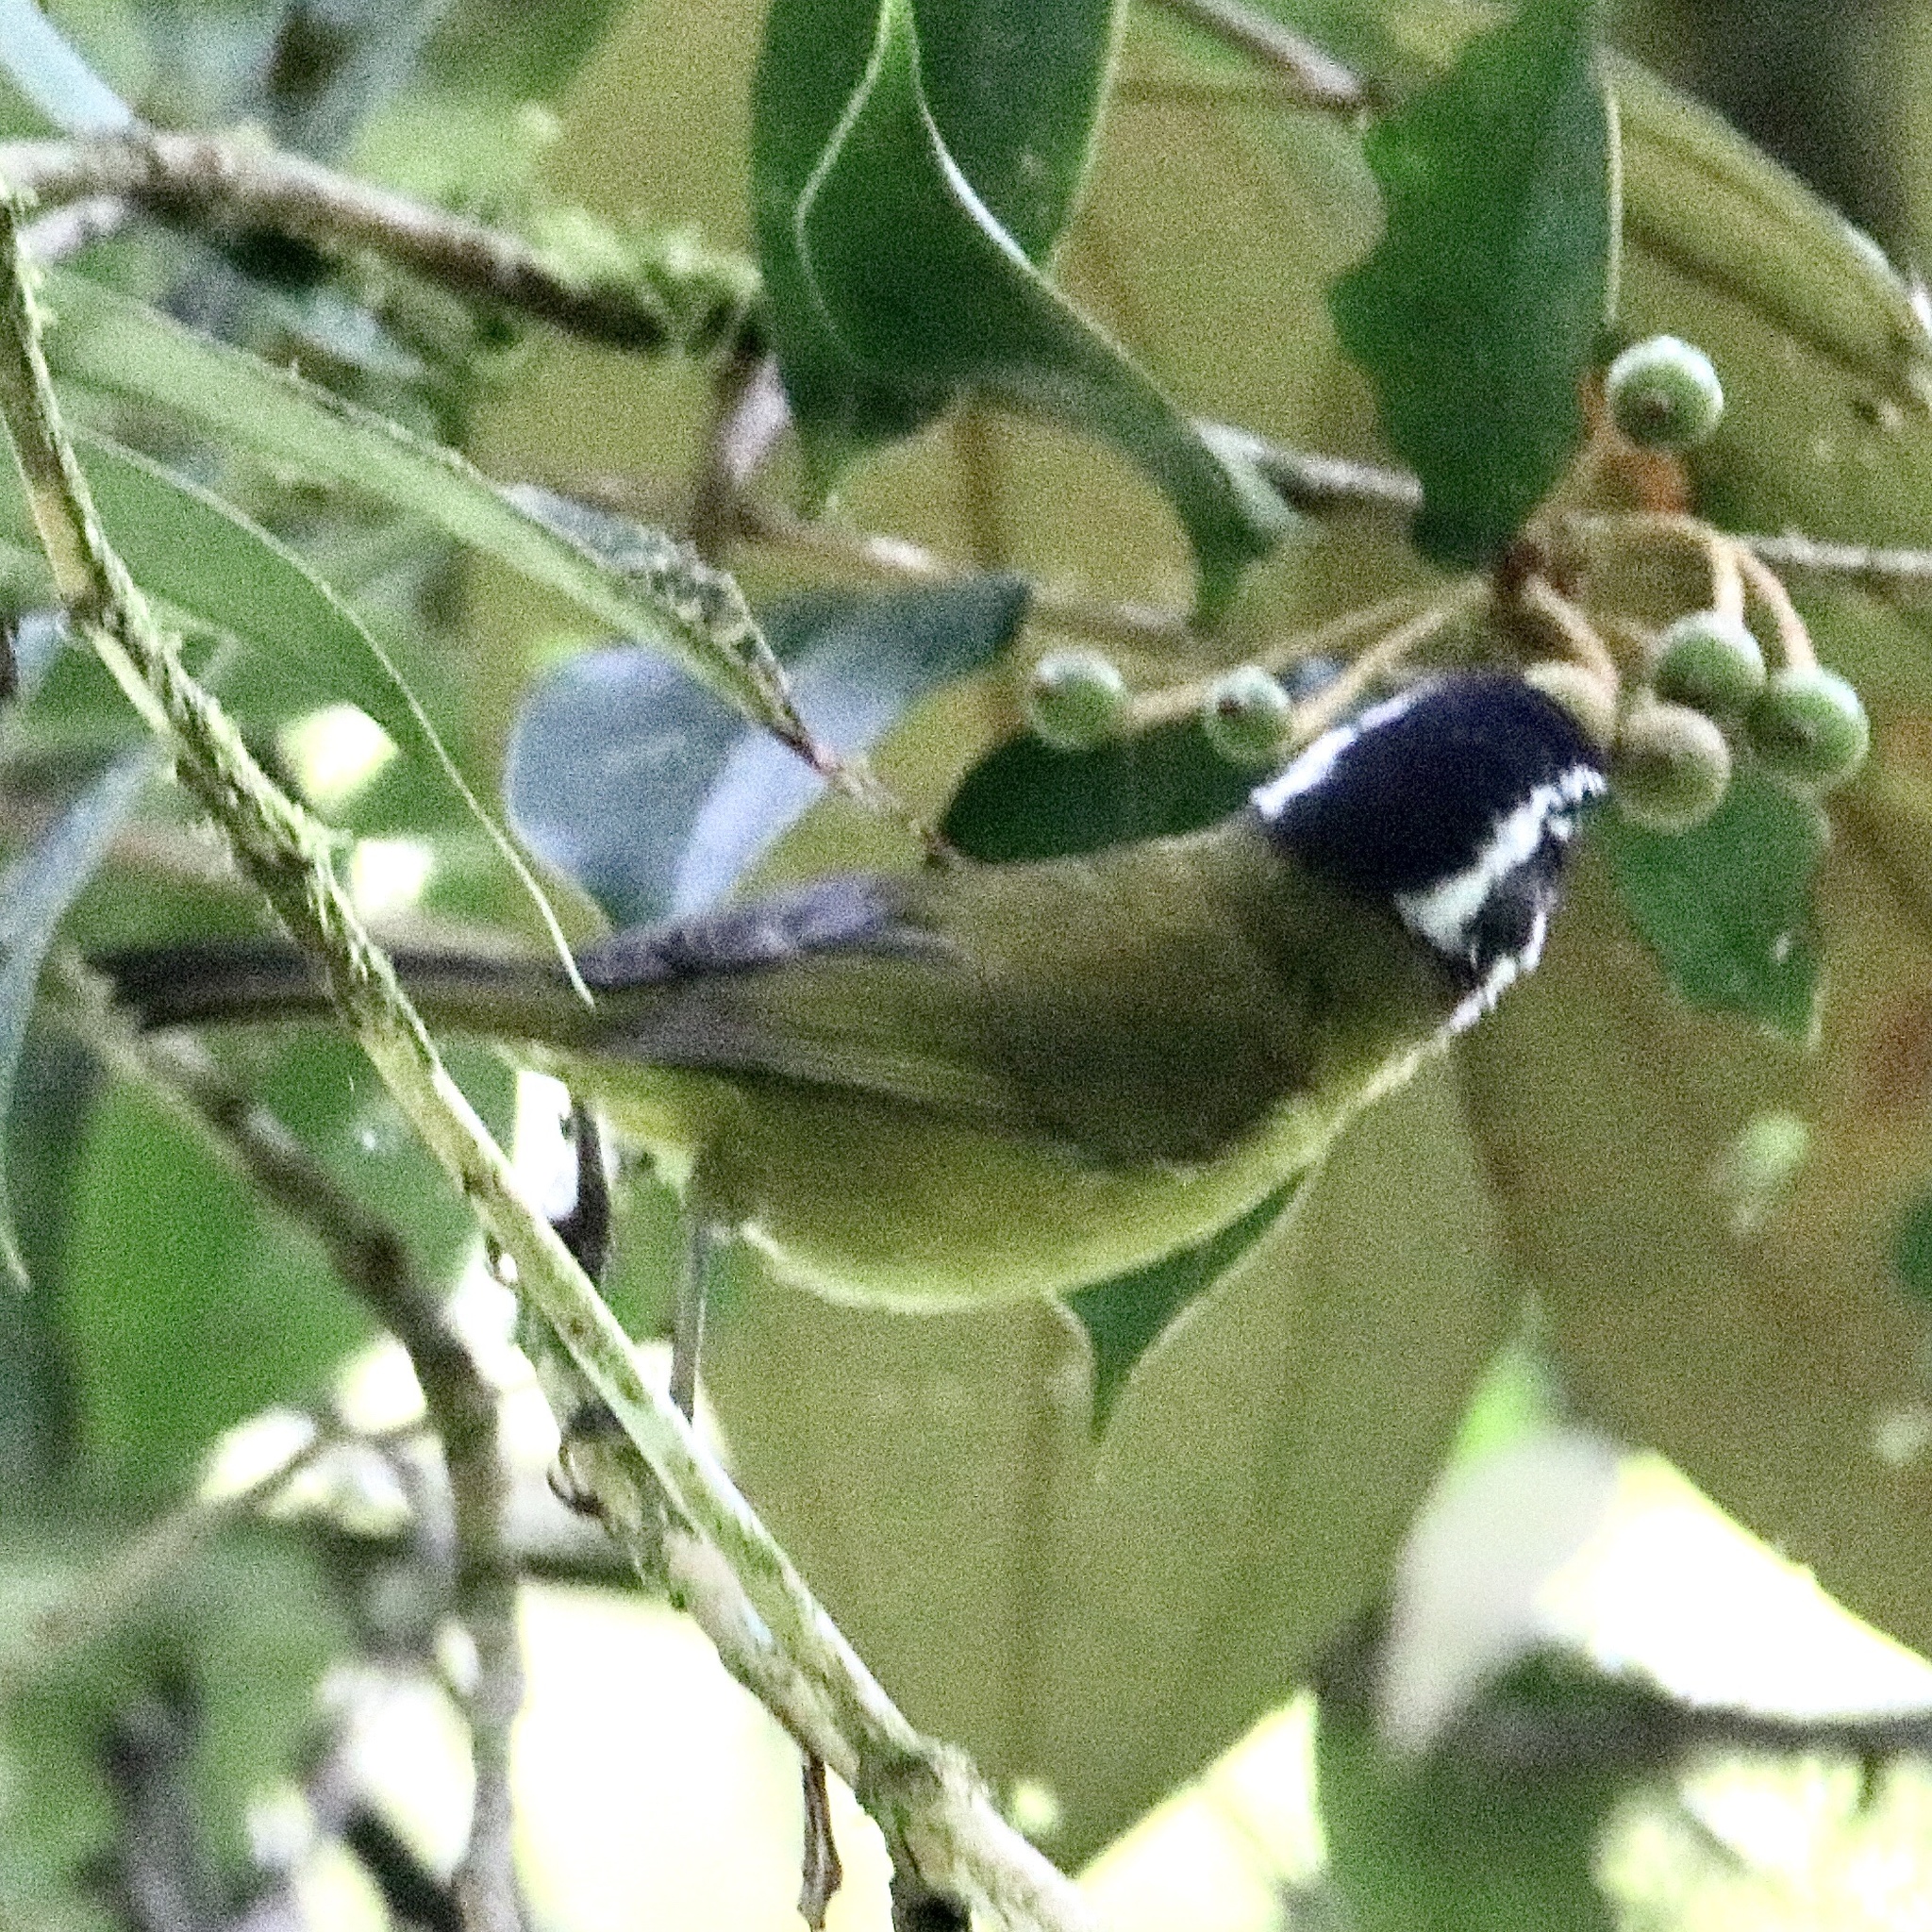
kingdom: Animalia
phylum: Chordata
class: Aves
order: Passeriformes
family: Passerellidae
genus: Chlorospingus
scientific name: Chlorospingus pileatus
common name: Sooty-capped bush-tanager
